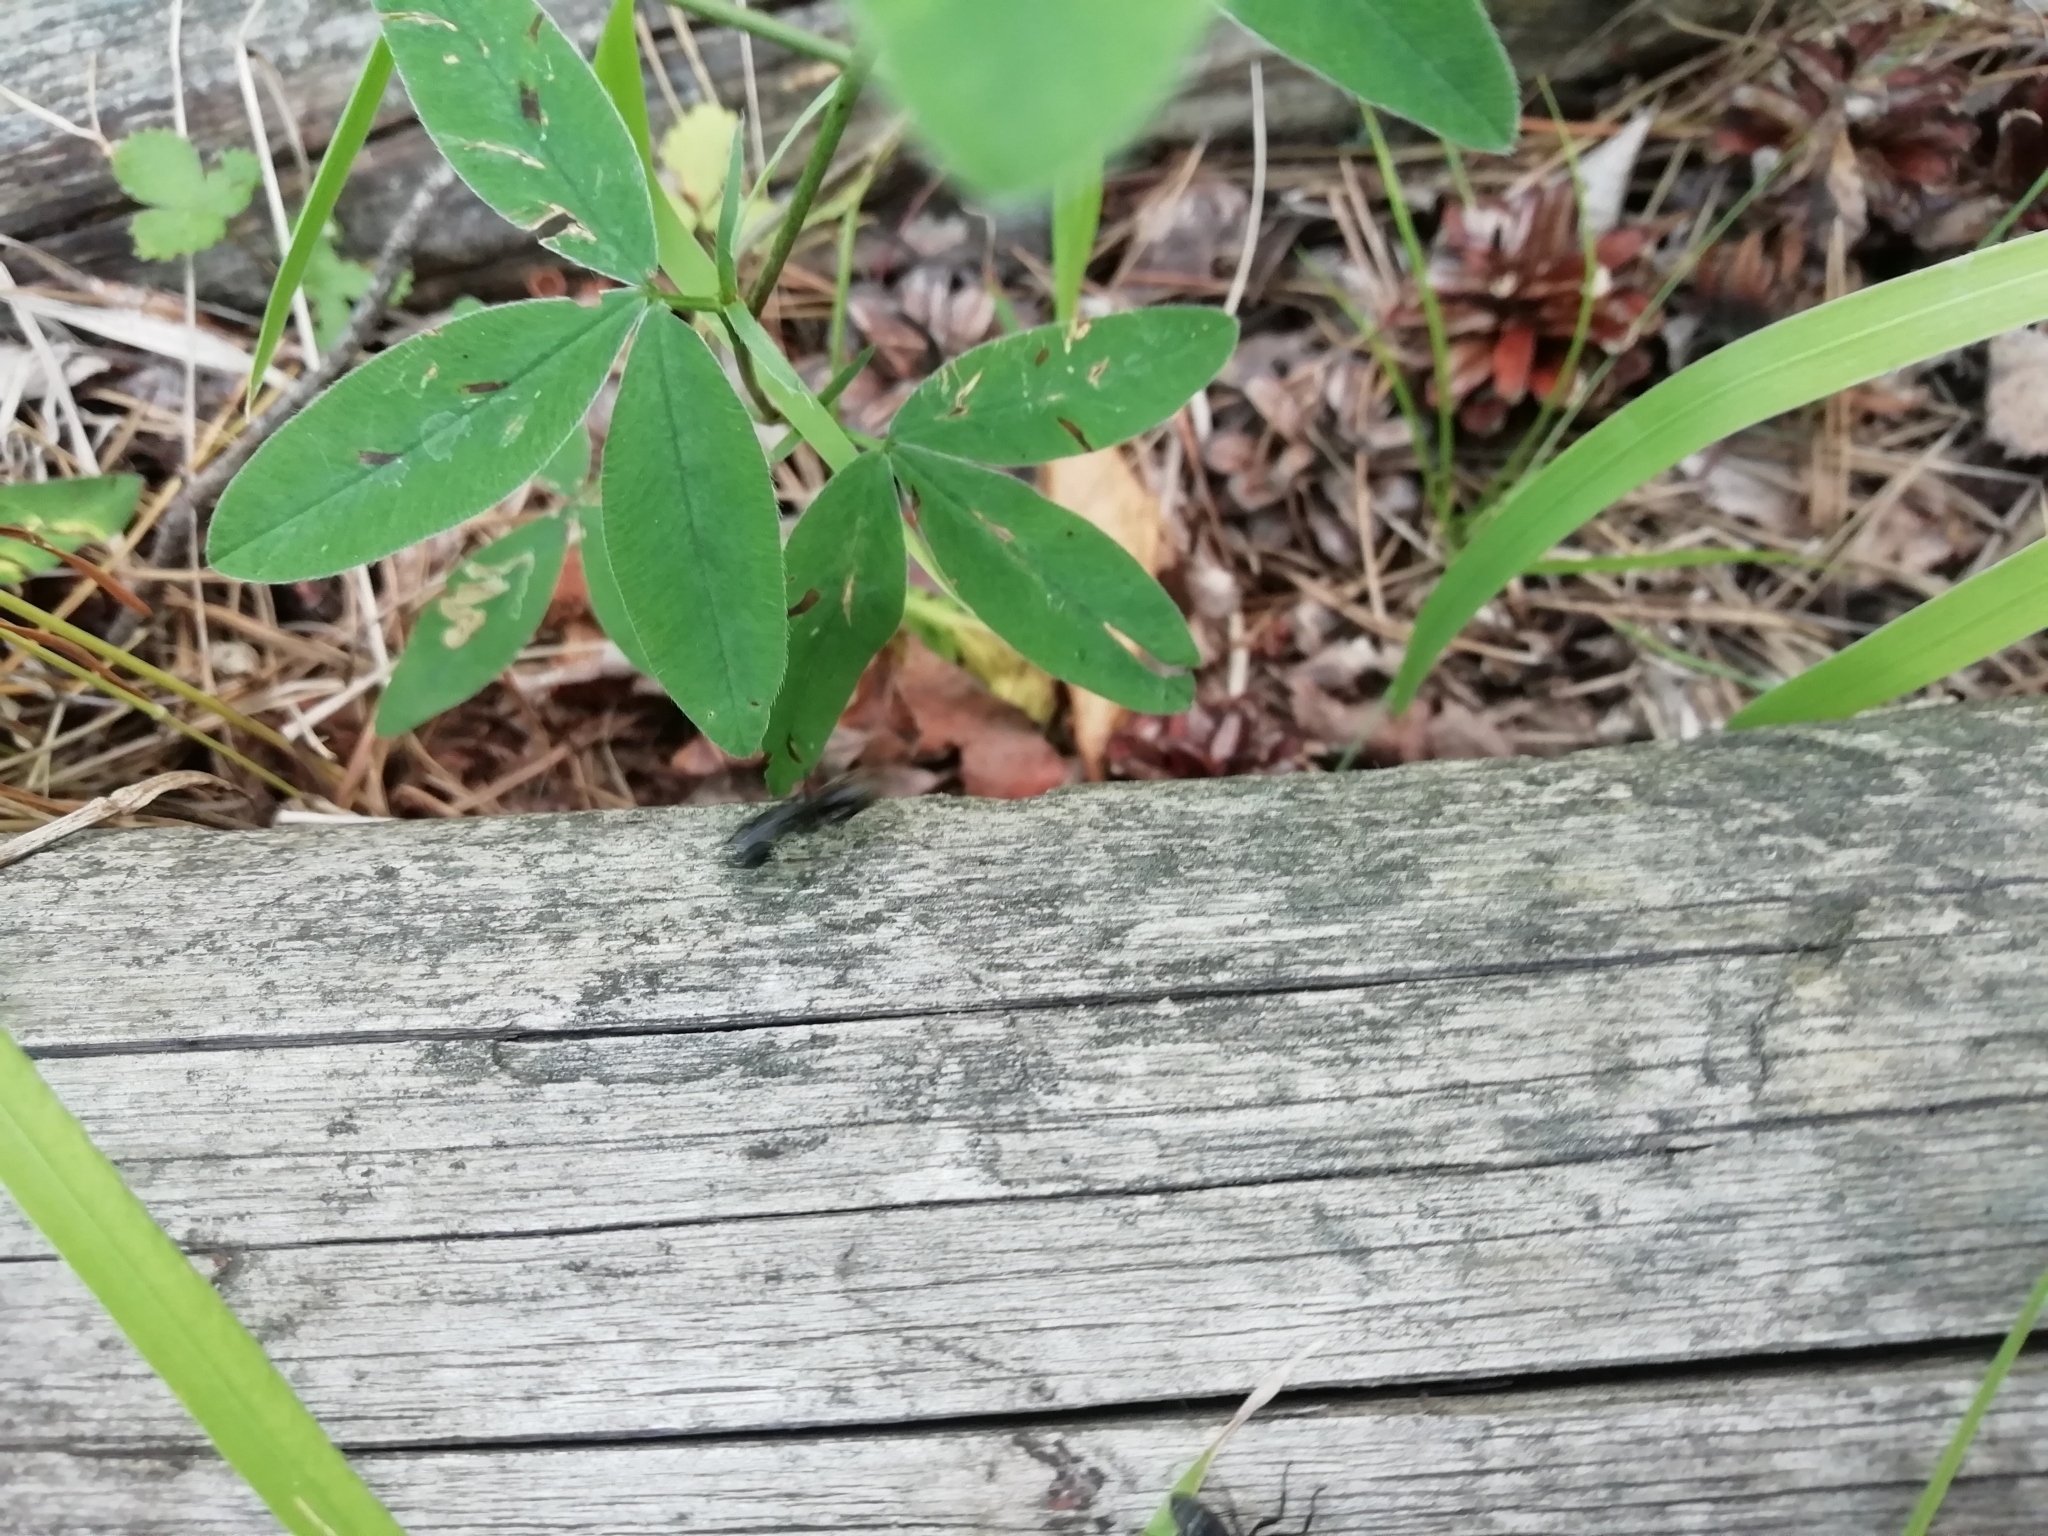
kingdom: Animalia
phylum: Arthropoda
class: Insecta
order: Hymenoptera
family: Formicidae
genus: Camponotus
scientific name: Camponotus vagus
